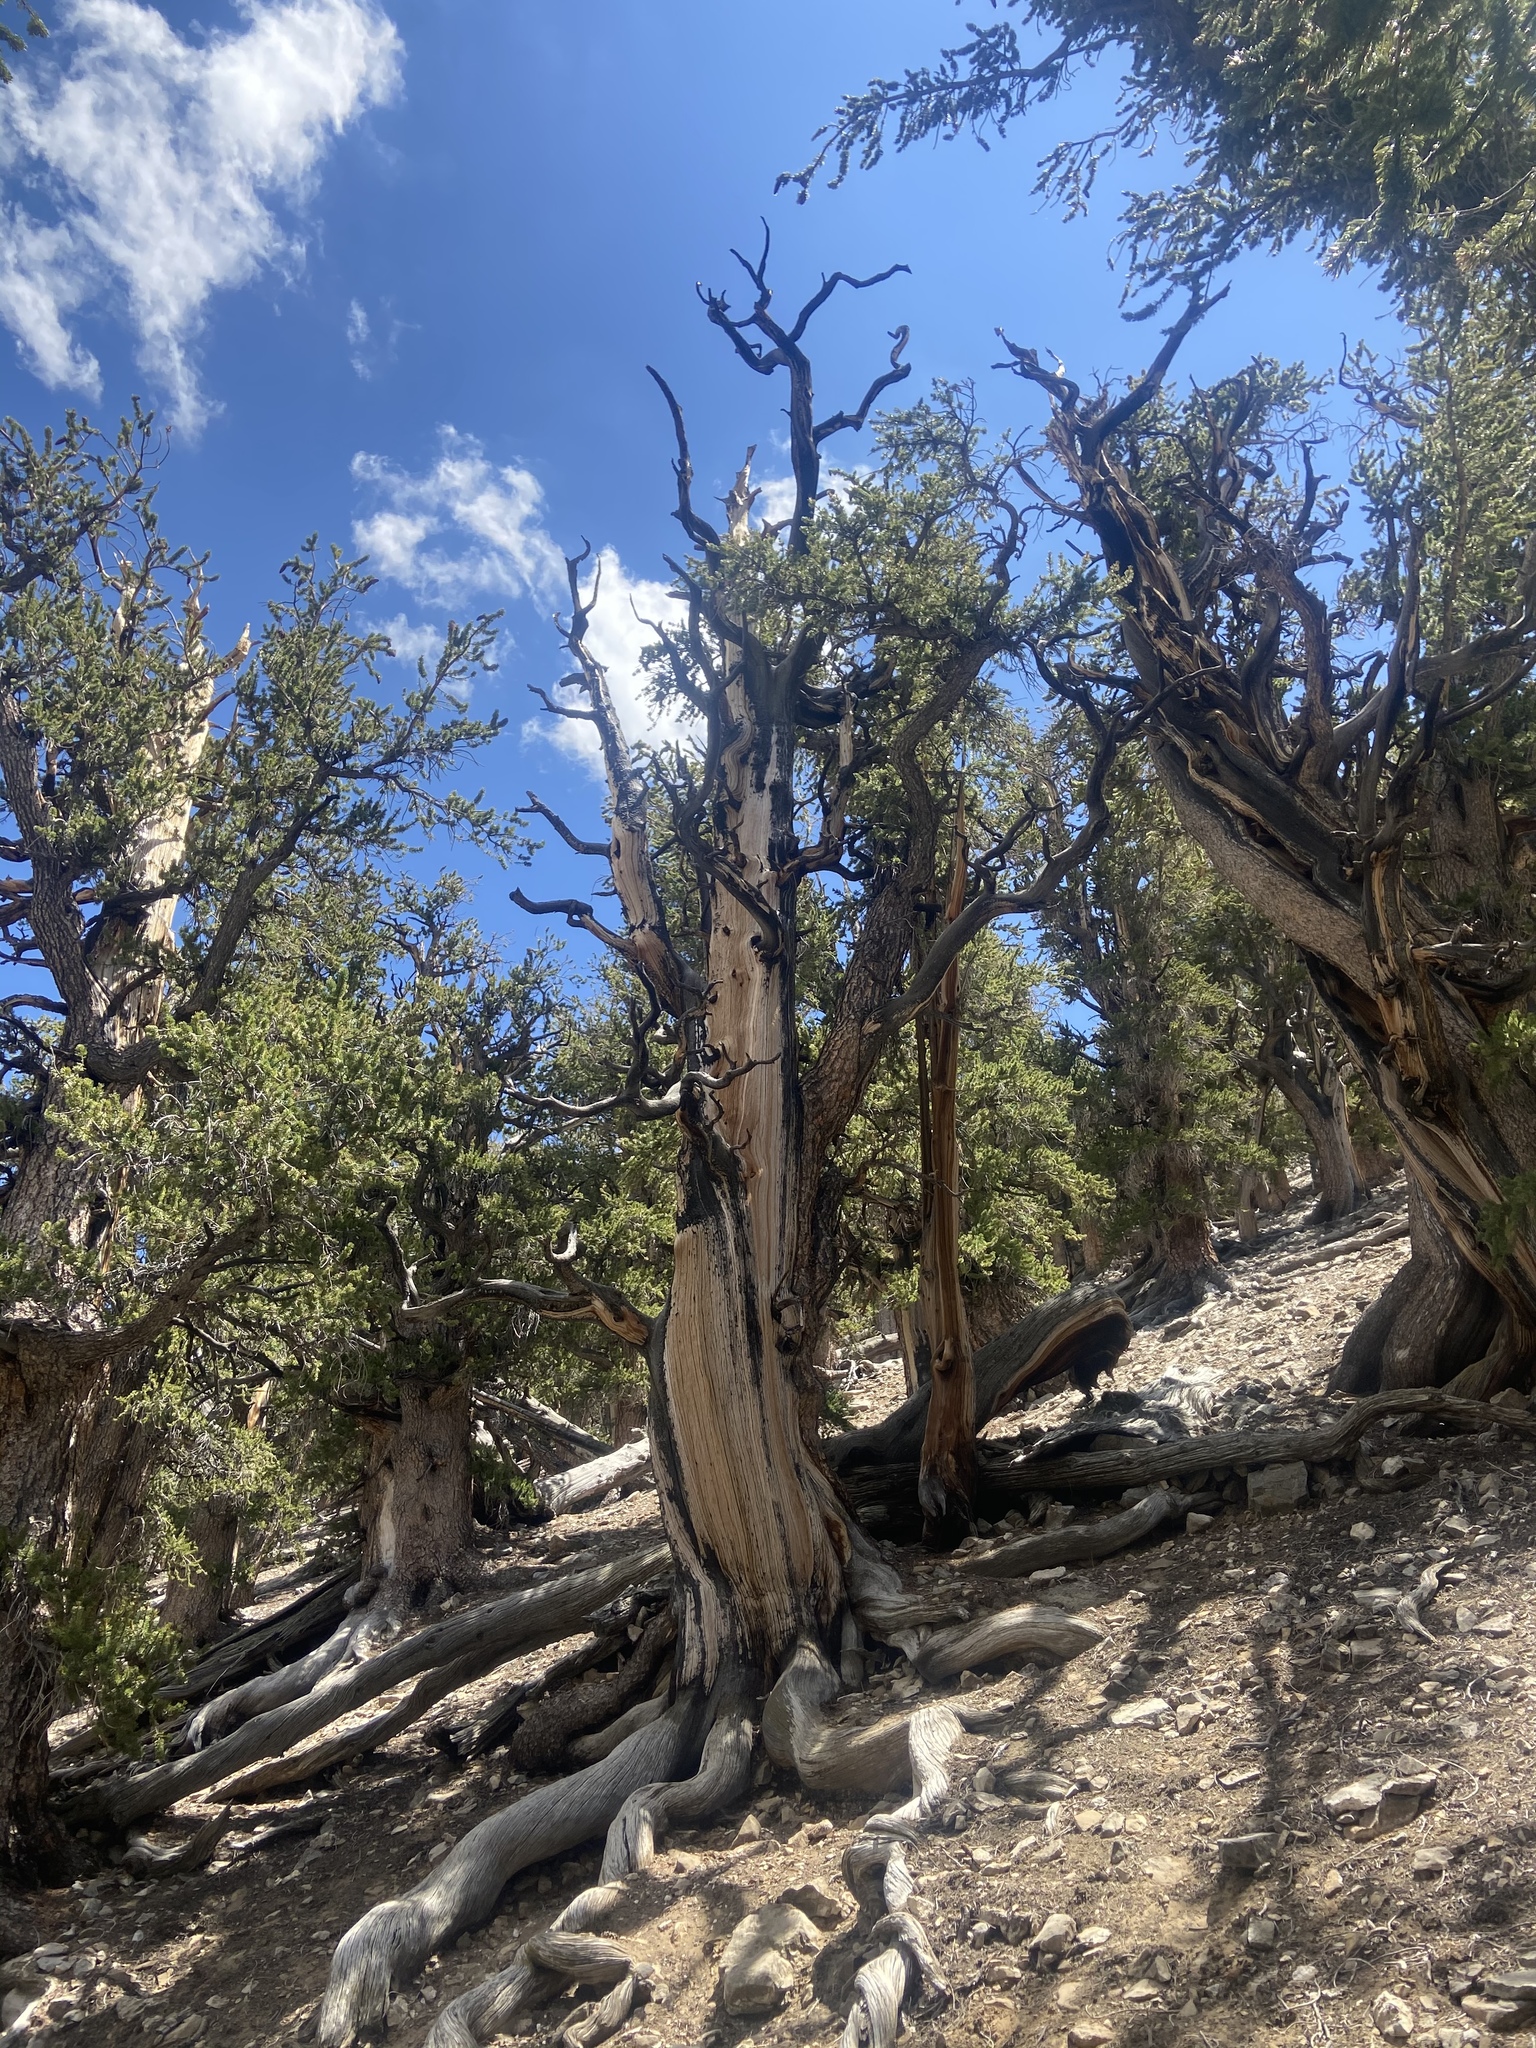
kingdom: Plantae
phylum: Tracheophyta
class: Pinopsida
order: Pinales
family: Pinaceae
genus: Pinus
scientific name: Pinus longaeva
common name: Intermountain bristlecone pine
